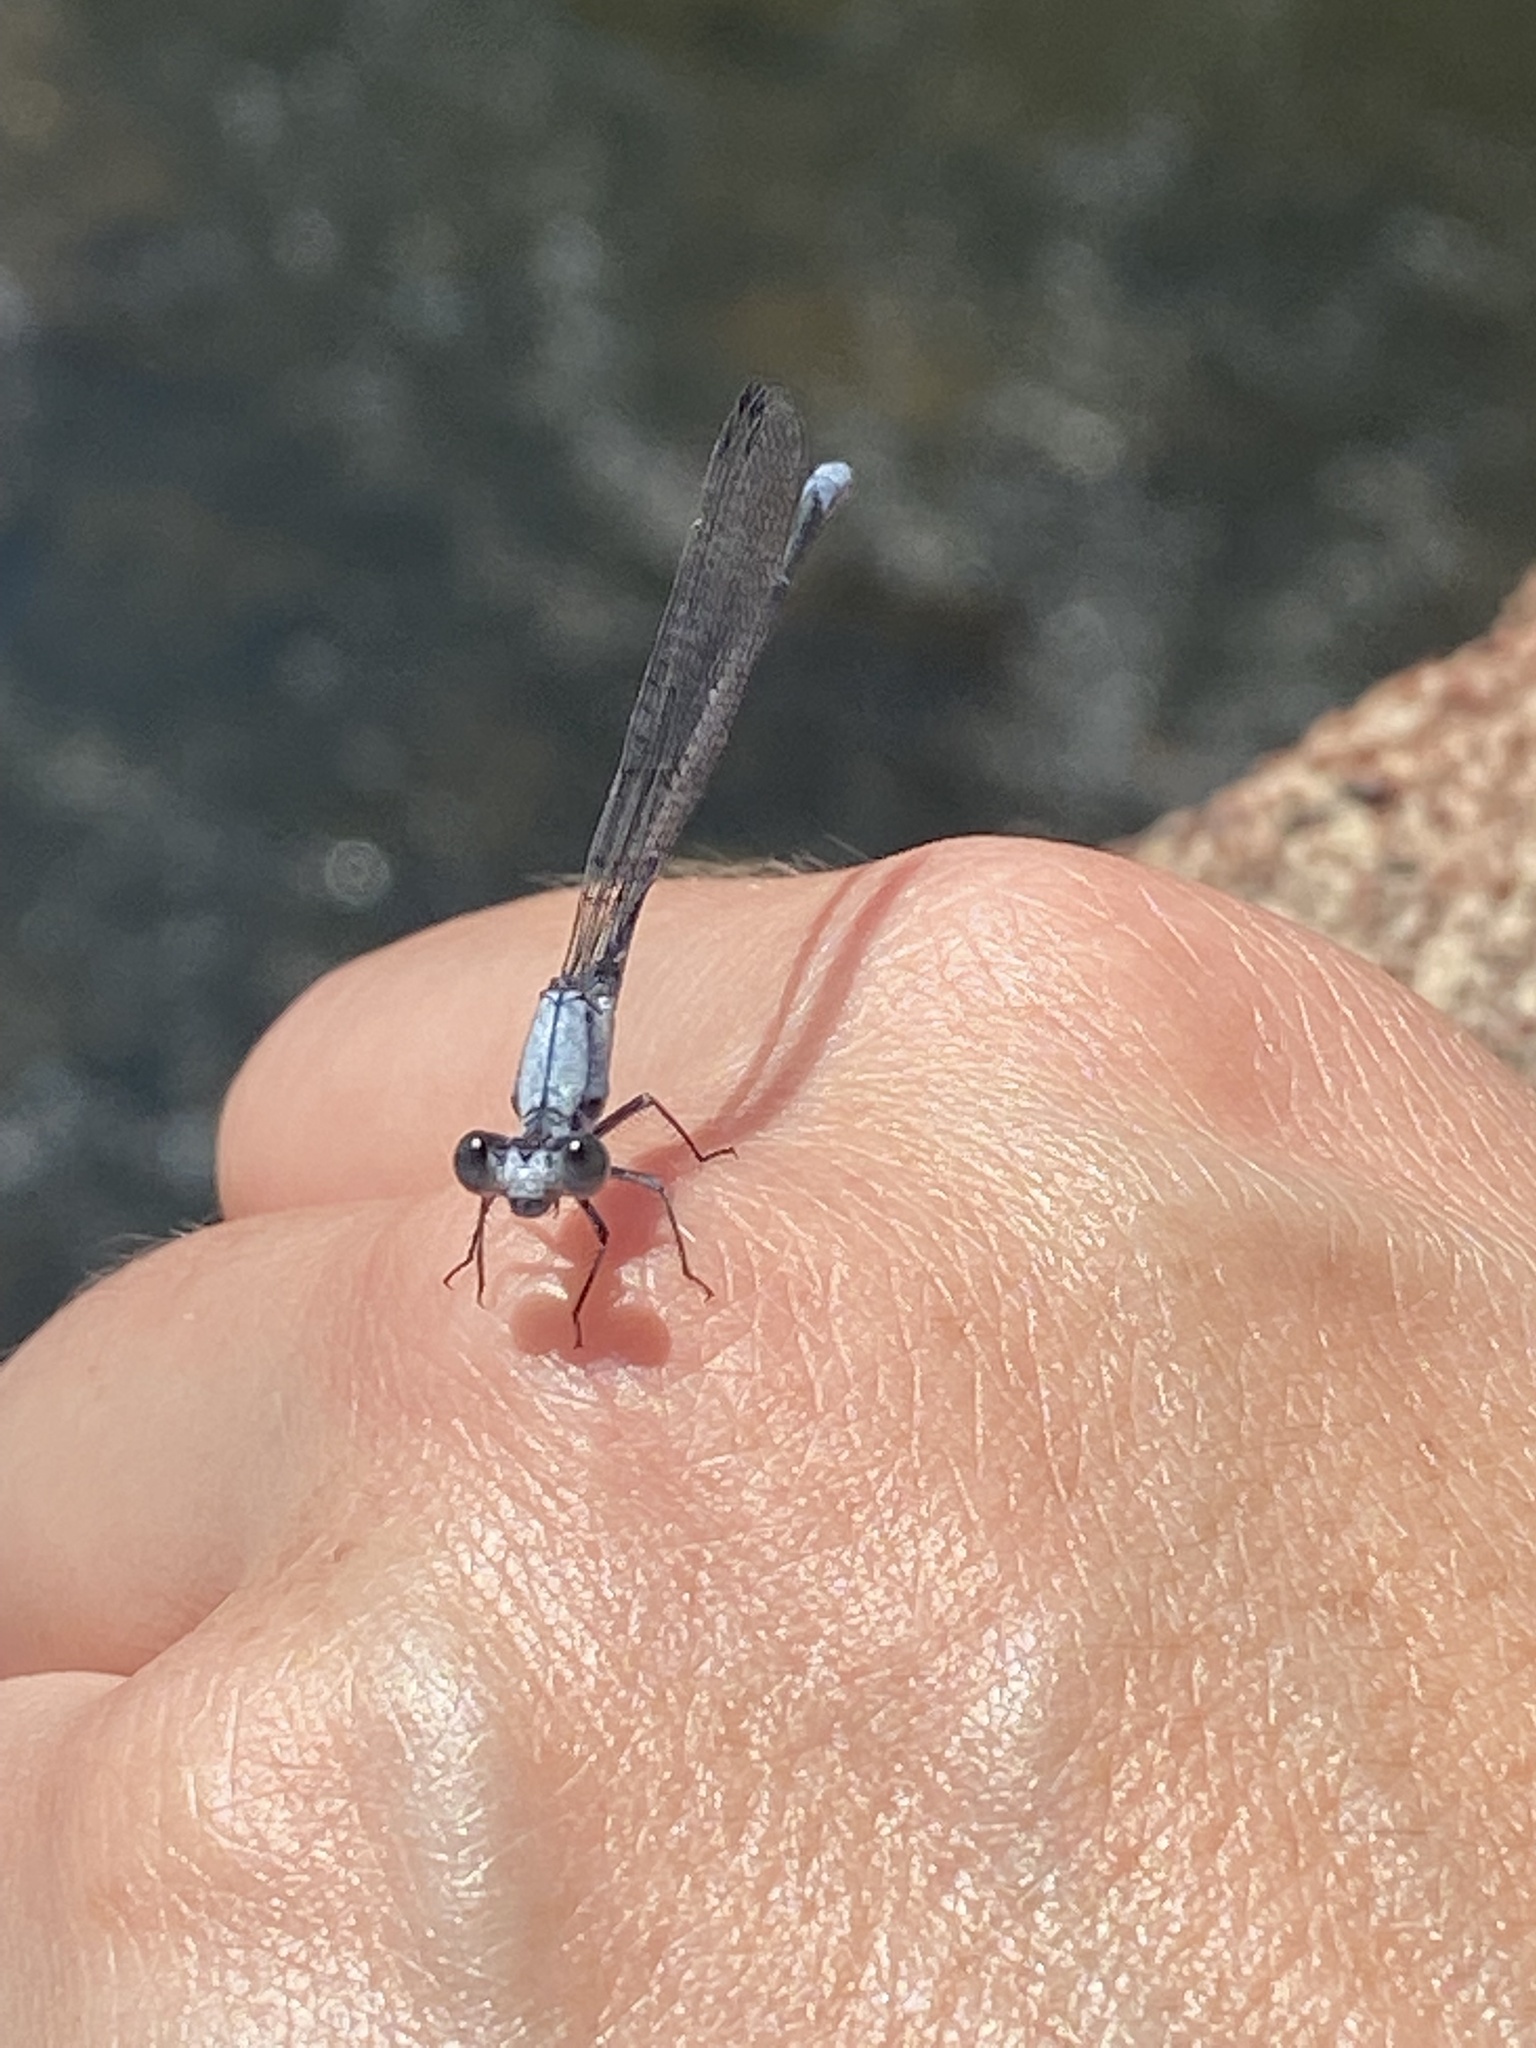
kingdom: Animalia
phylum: Arthropoda
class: Insecta
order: Odonata
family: Coenagrionidae
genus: Argia
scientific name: Argia moesta
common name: Powdered dancer
